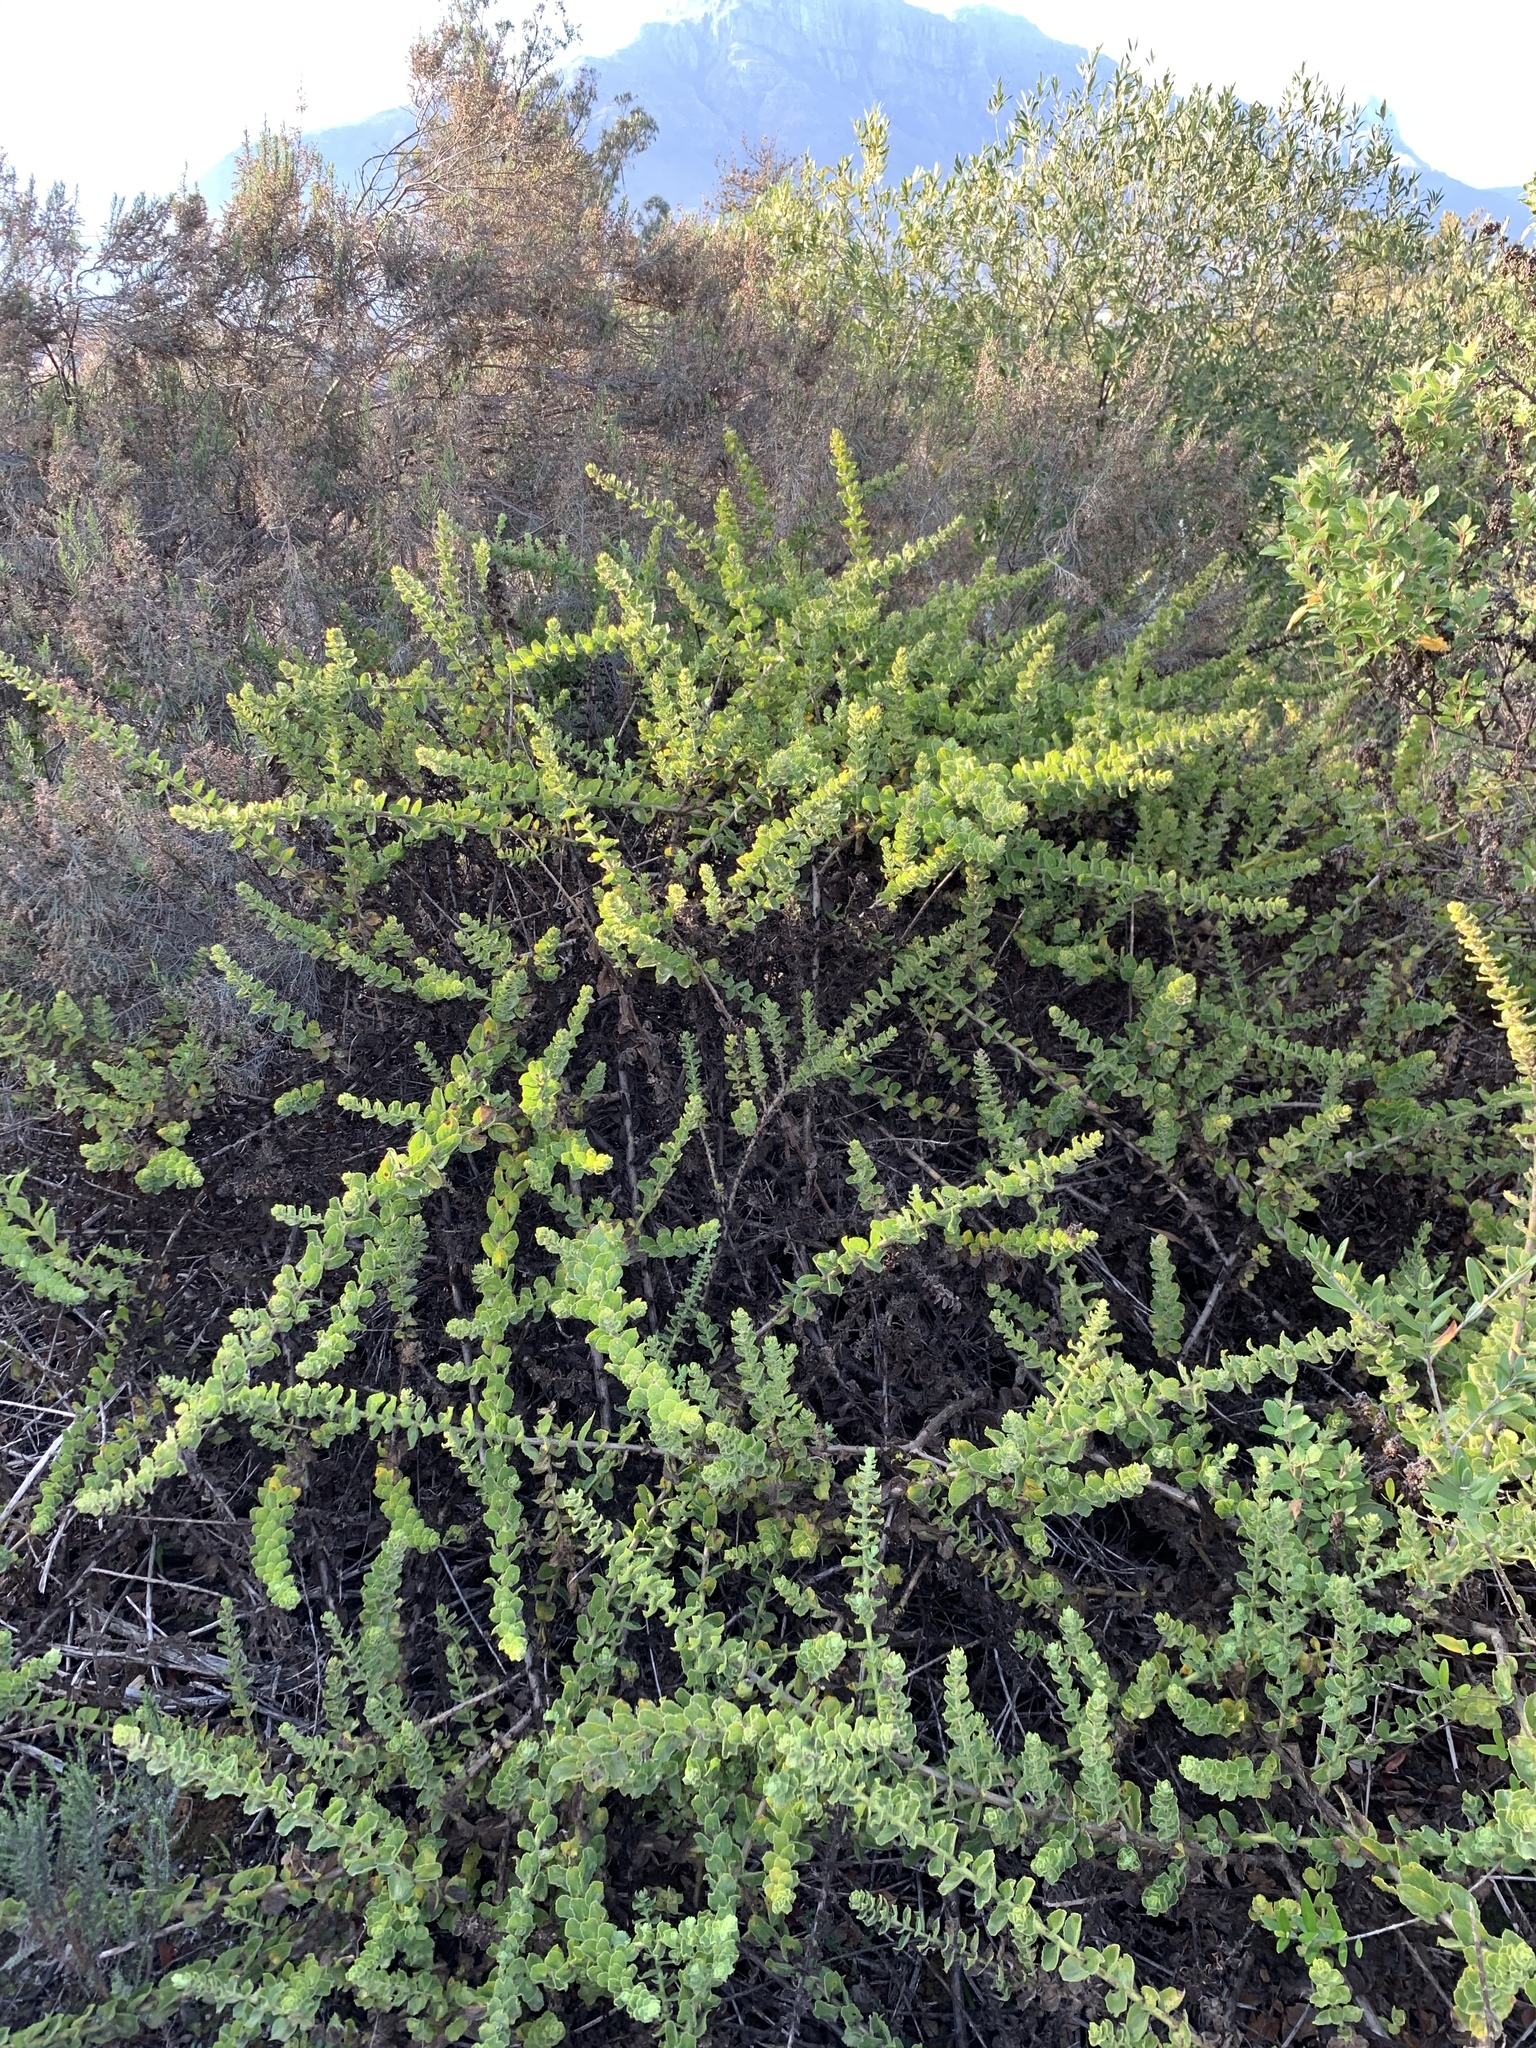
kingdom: Plantae
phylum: Tracheophyta
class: Magnoliopsida
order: Lamiales
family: Scrophulariaceae
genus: Oftia
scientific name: Oftia africana
